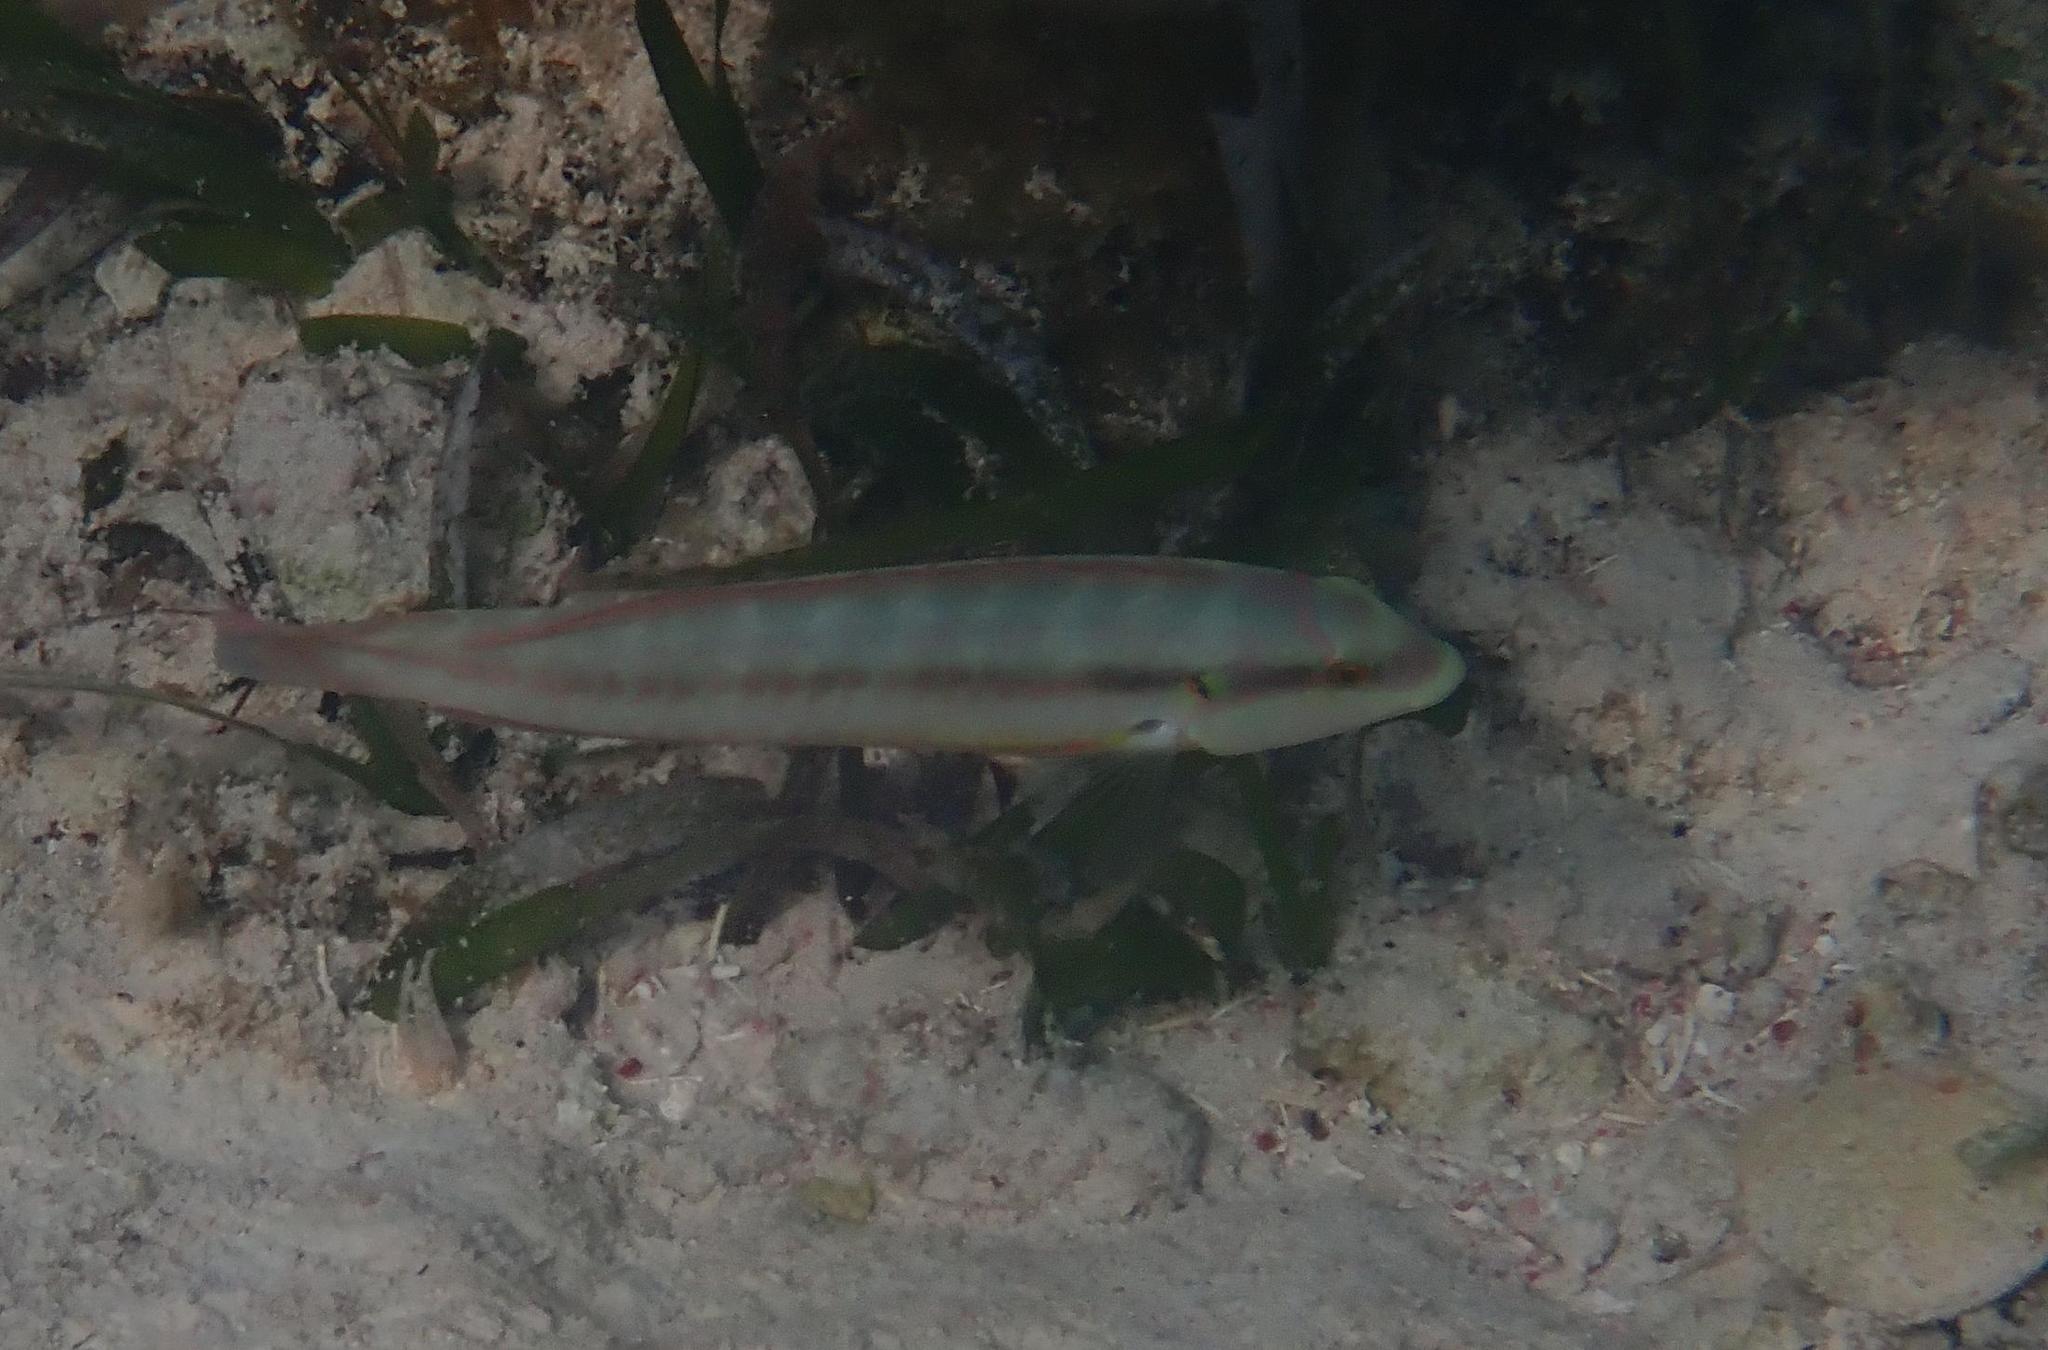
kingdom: Animalia
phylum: Chordata
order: Perciformes
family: Labridae
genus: Halichoeres
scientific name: Halichoeres bivittatus
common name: Slippery dick
